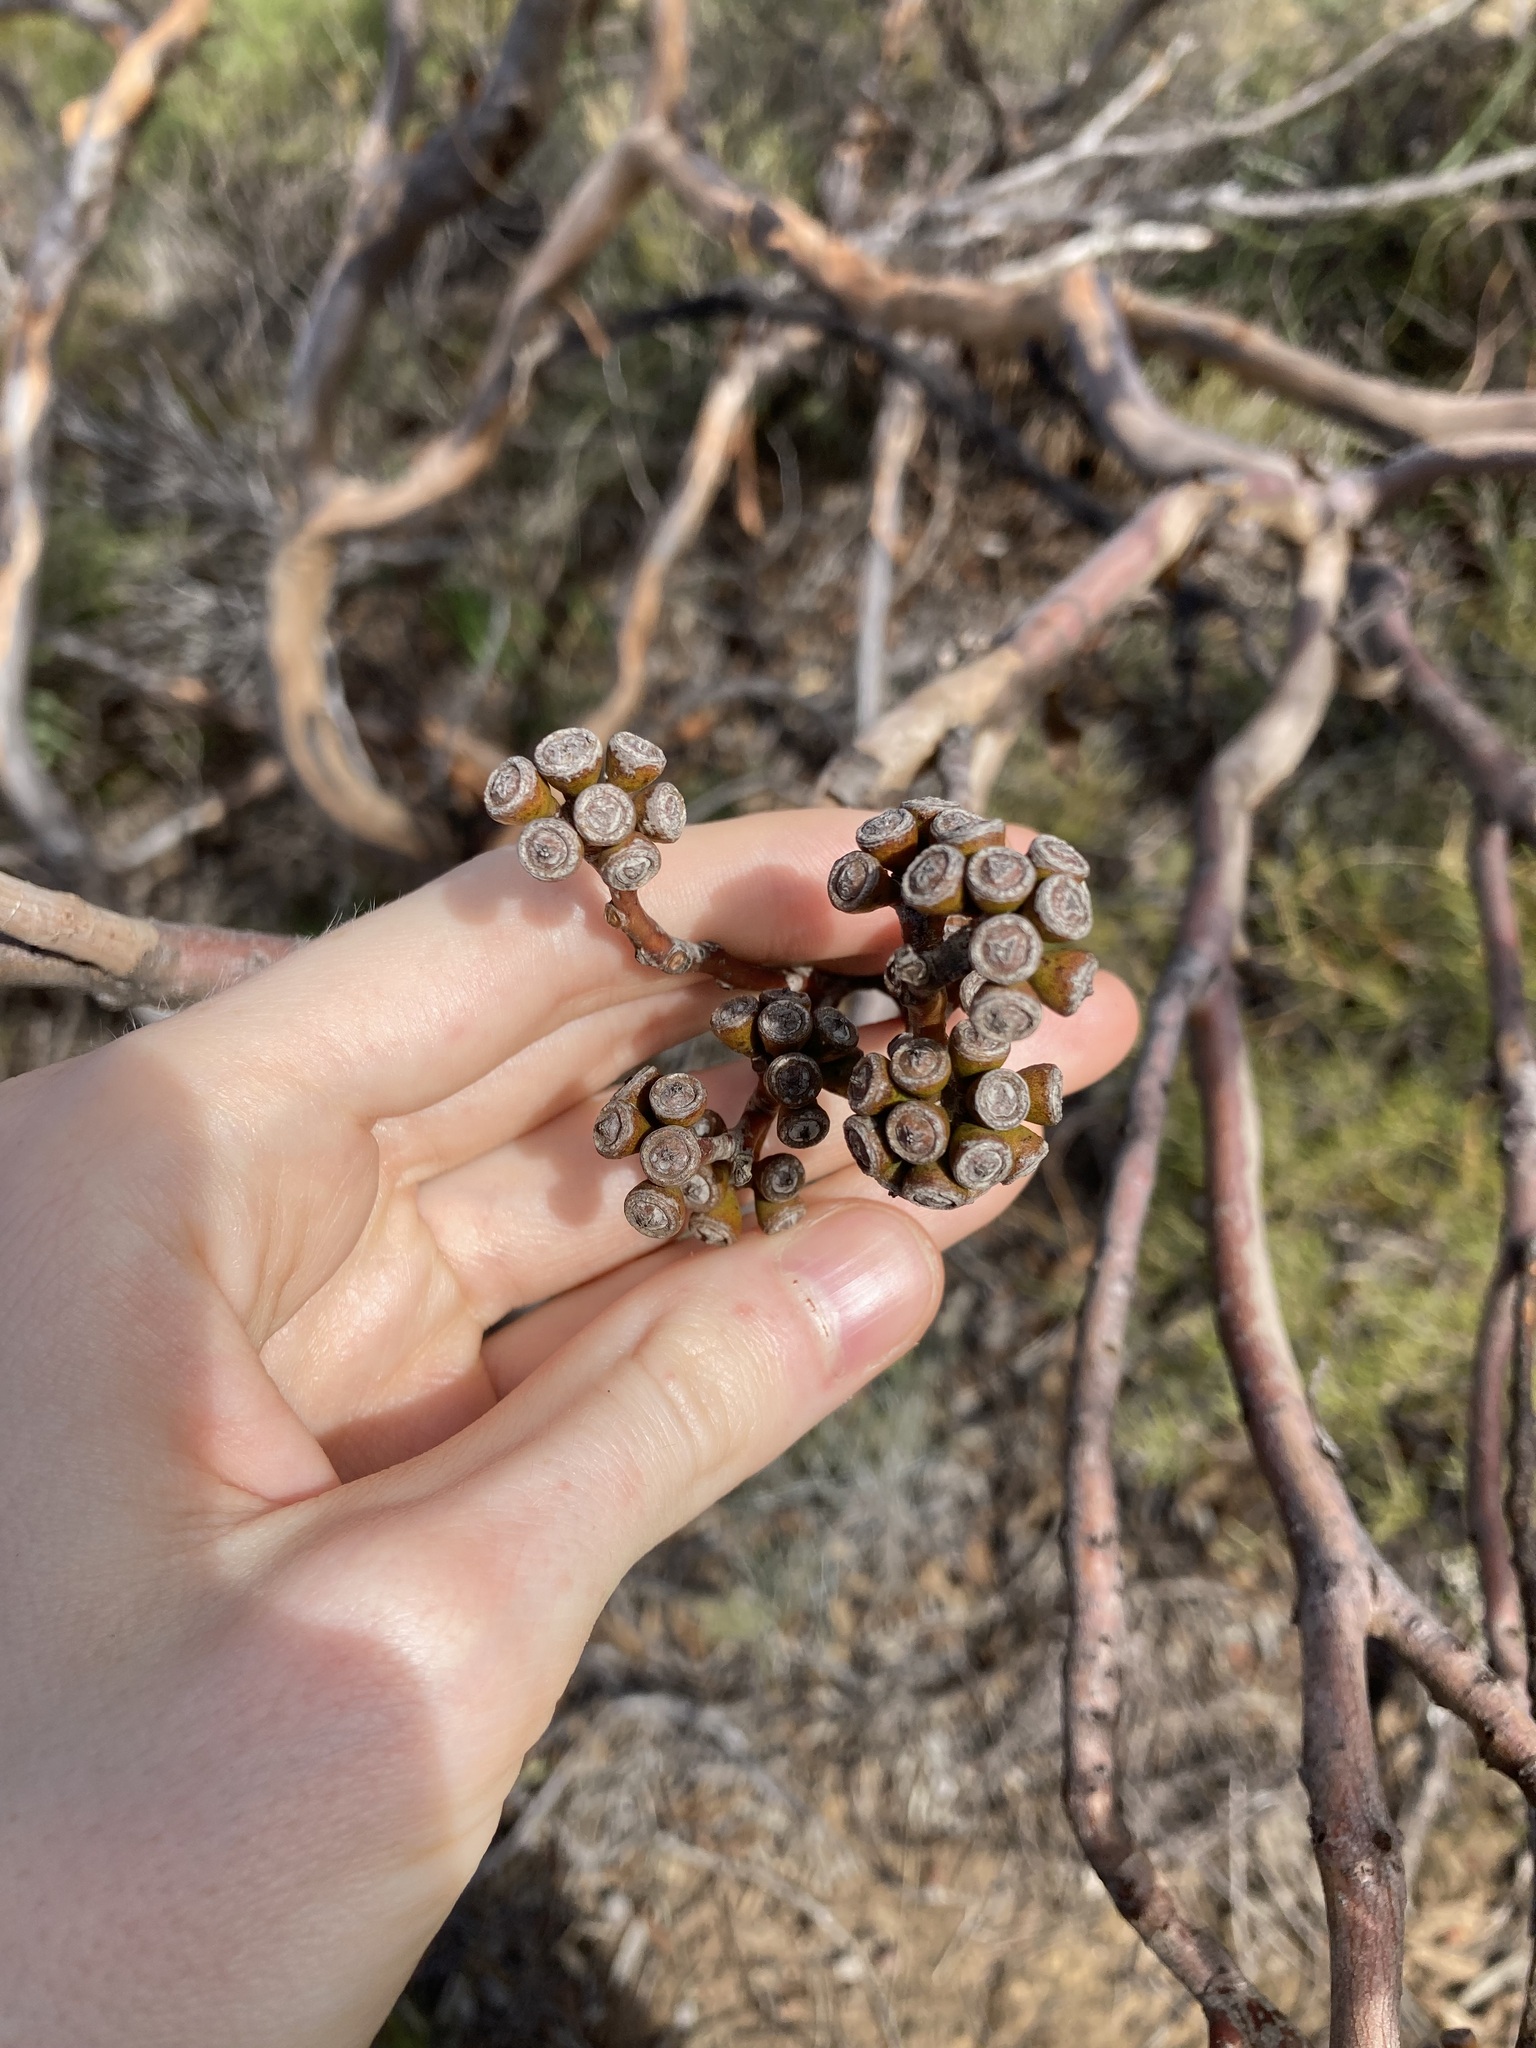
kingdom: Plantae
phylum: Tracheophyta
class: Magnoliopsida
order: Myrtales
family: Myrtaceae
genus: Eucalyptus
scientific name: Eucalyptus subangusta
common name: Ember mallee
